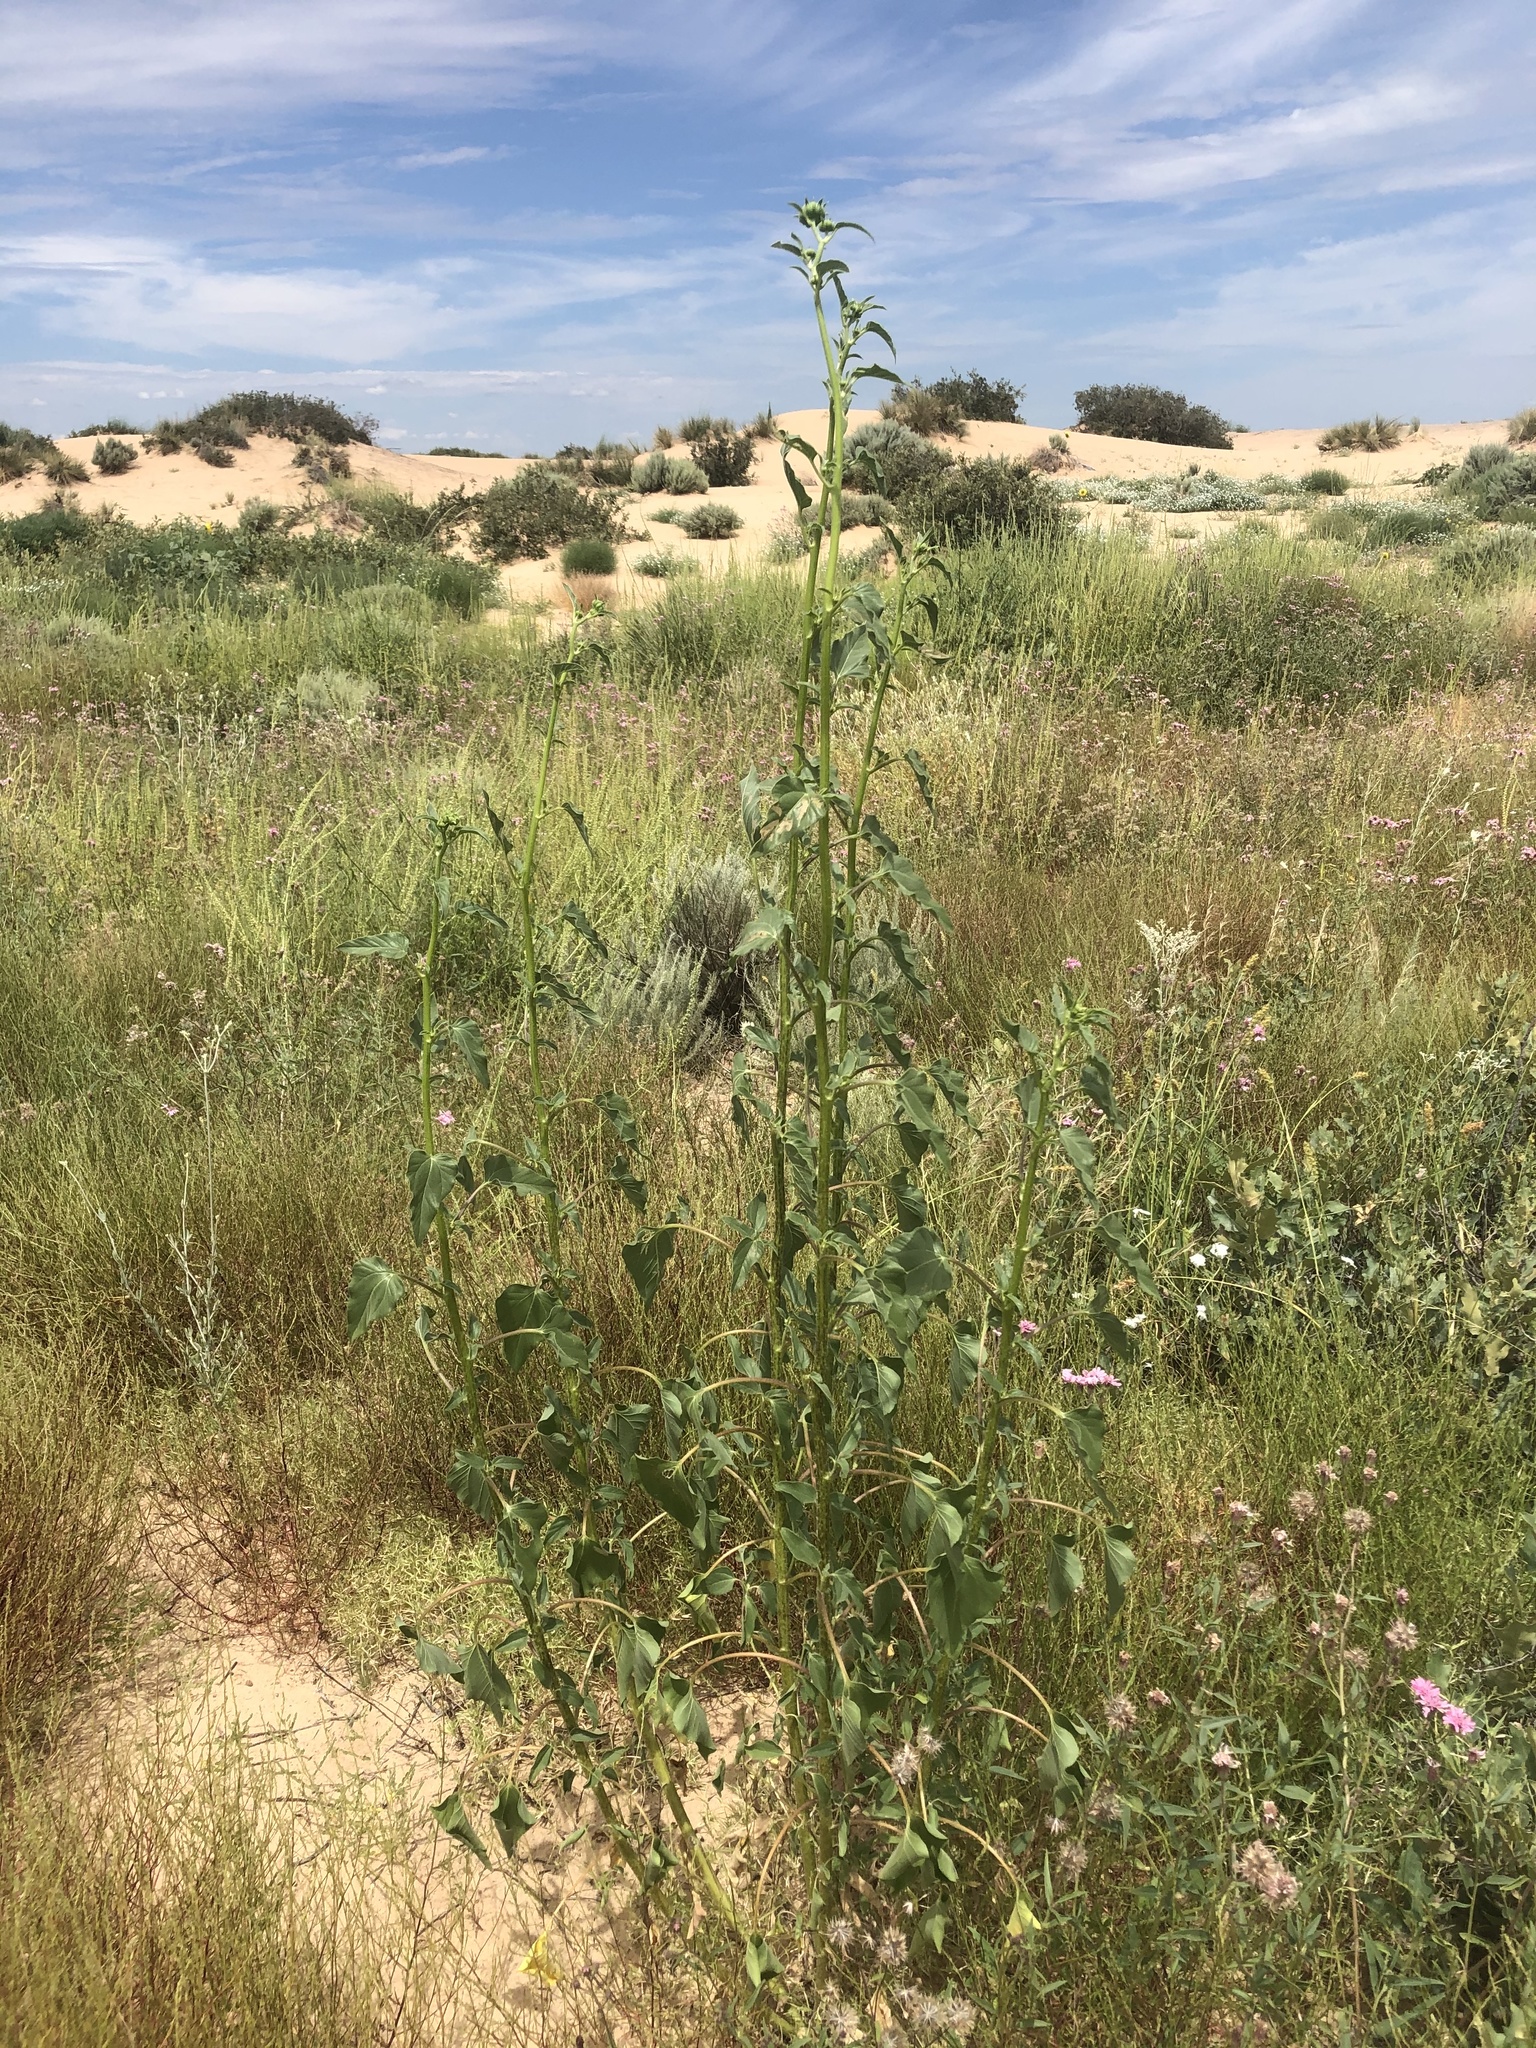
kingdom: Plantae
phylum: Tracheophyta
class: Magnoliopsida
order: Asterales
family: Asteraceae
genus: Helianthus
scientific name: Helianthus annuus
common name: Sunflower
